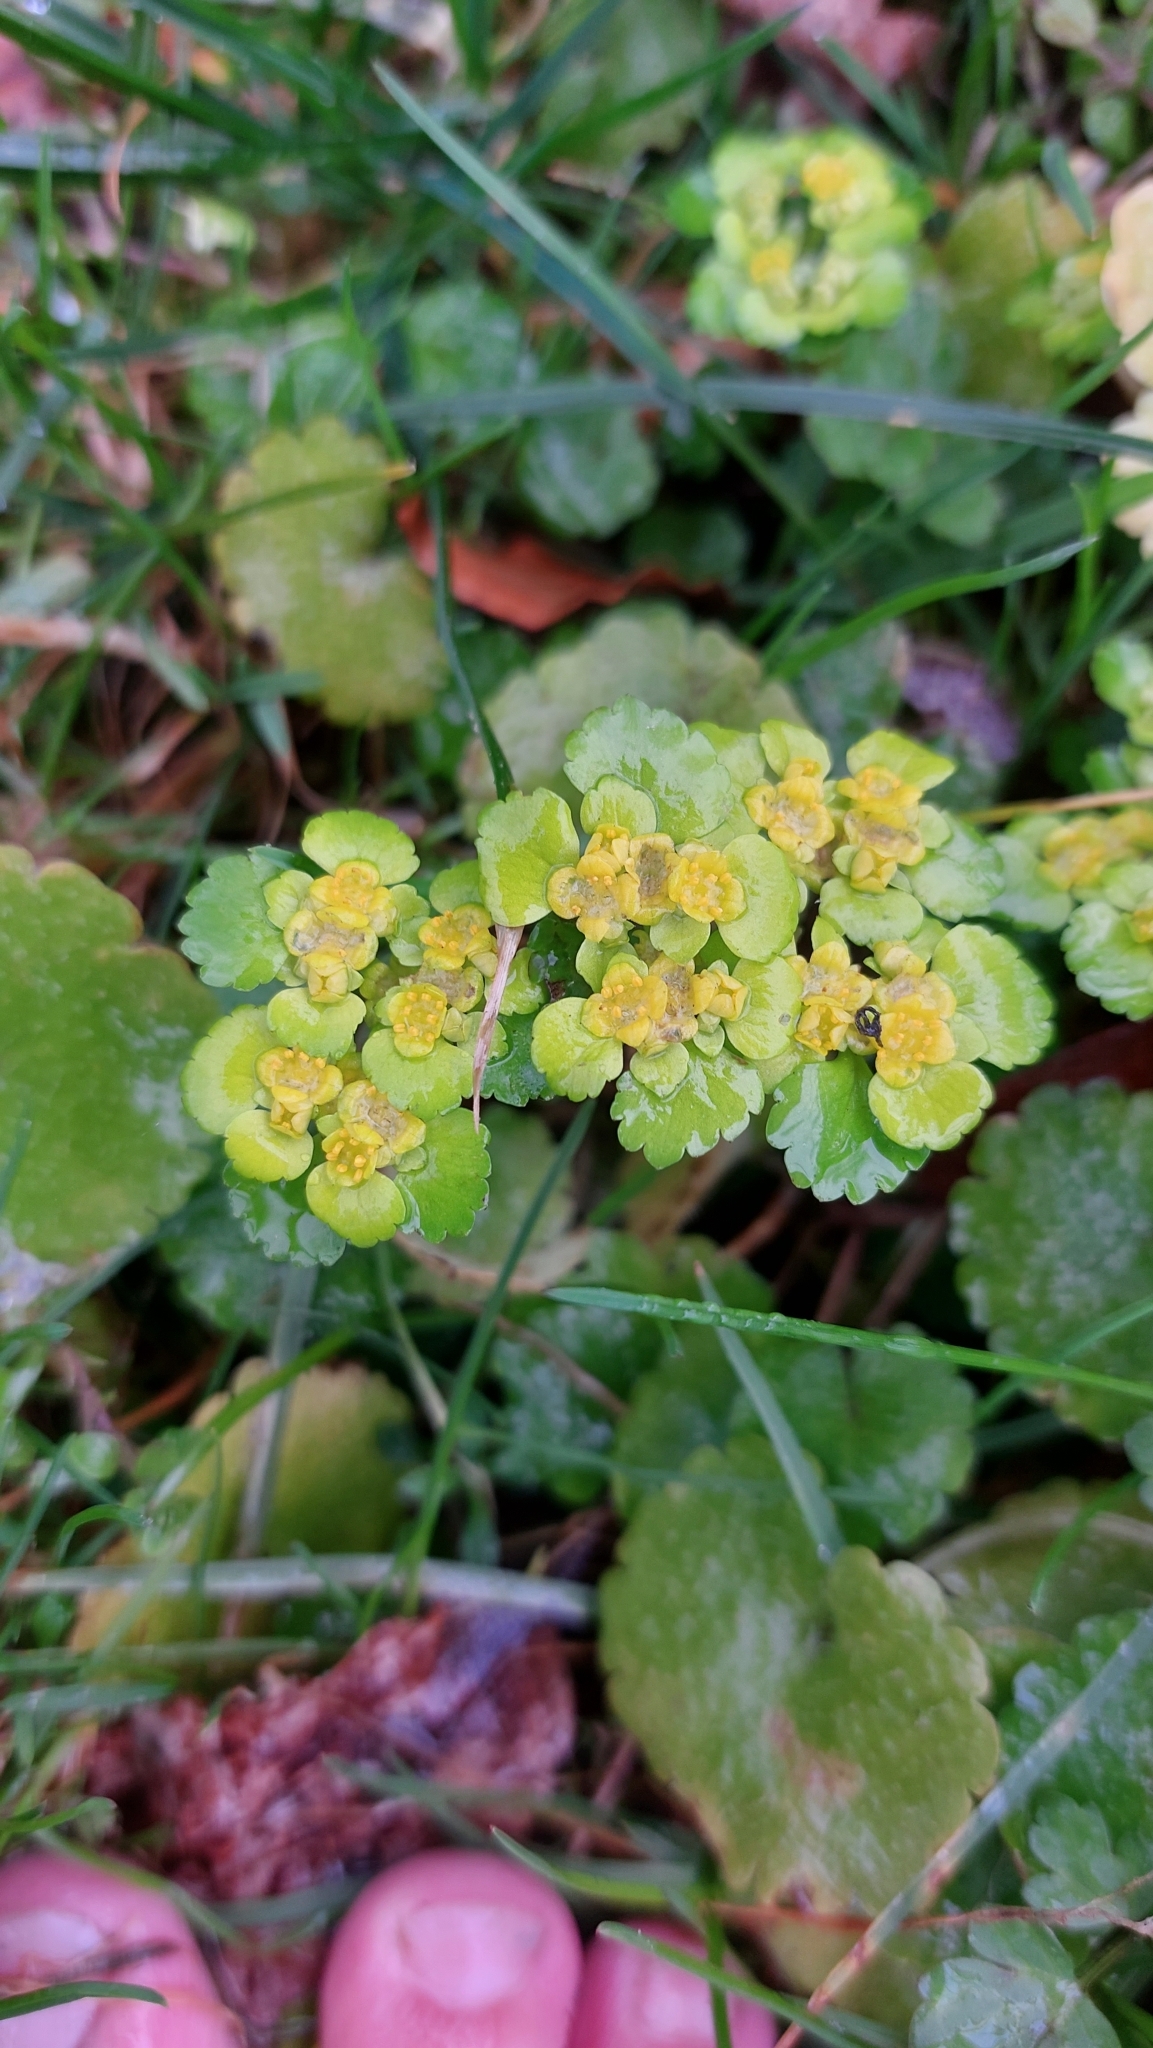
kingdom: Plantae
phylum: Tracheophyta
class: Magnoliopsida
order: Saxifragales
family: Saxifragaceae
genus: Chrysosplenium
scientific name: Chrysosplenium alternifolium
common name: Alternate-leaved golden-saxifrage
